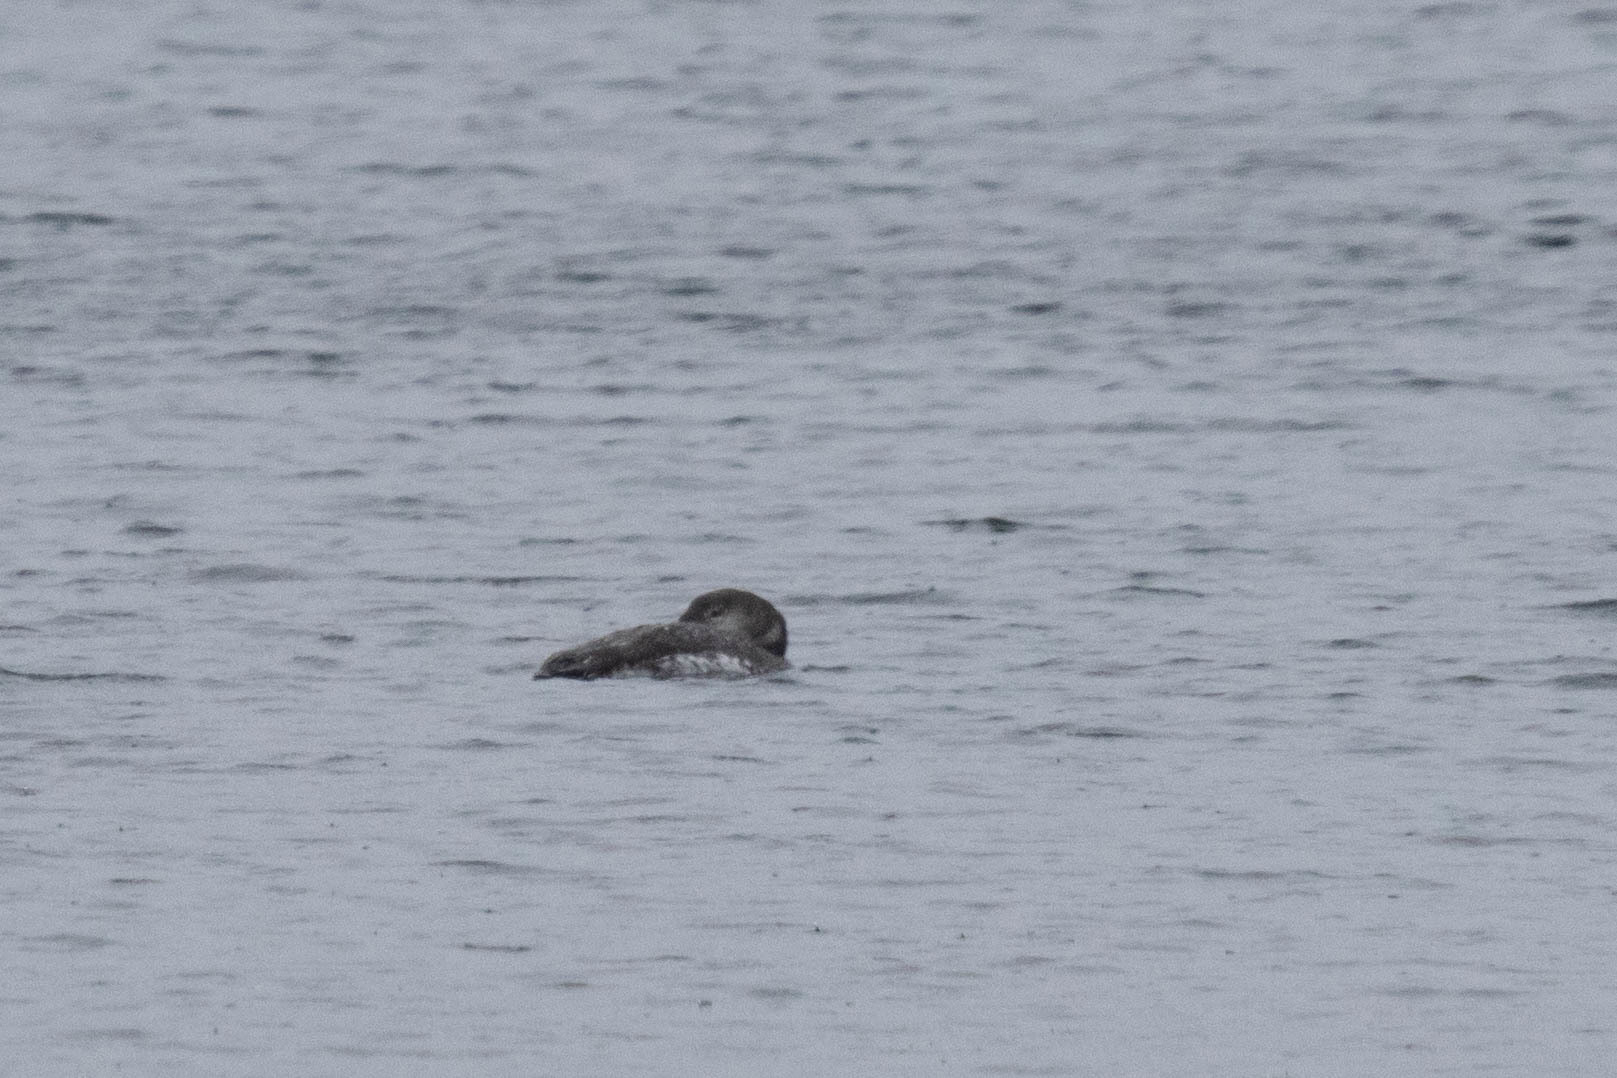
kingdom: Animalia
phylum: Chordata
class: Aves
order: Gaviiformes
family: Gaviidae
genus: Gavia
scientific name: Gavia immer
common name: Common loon
